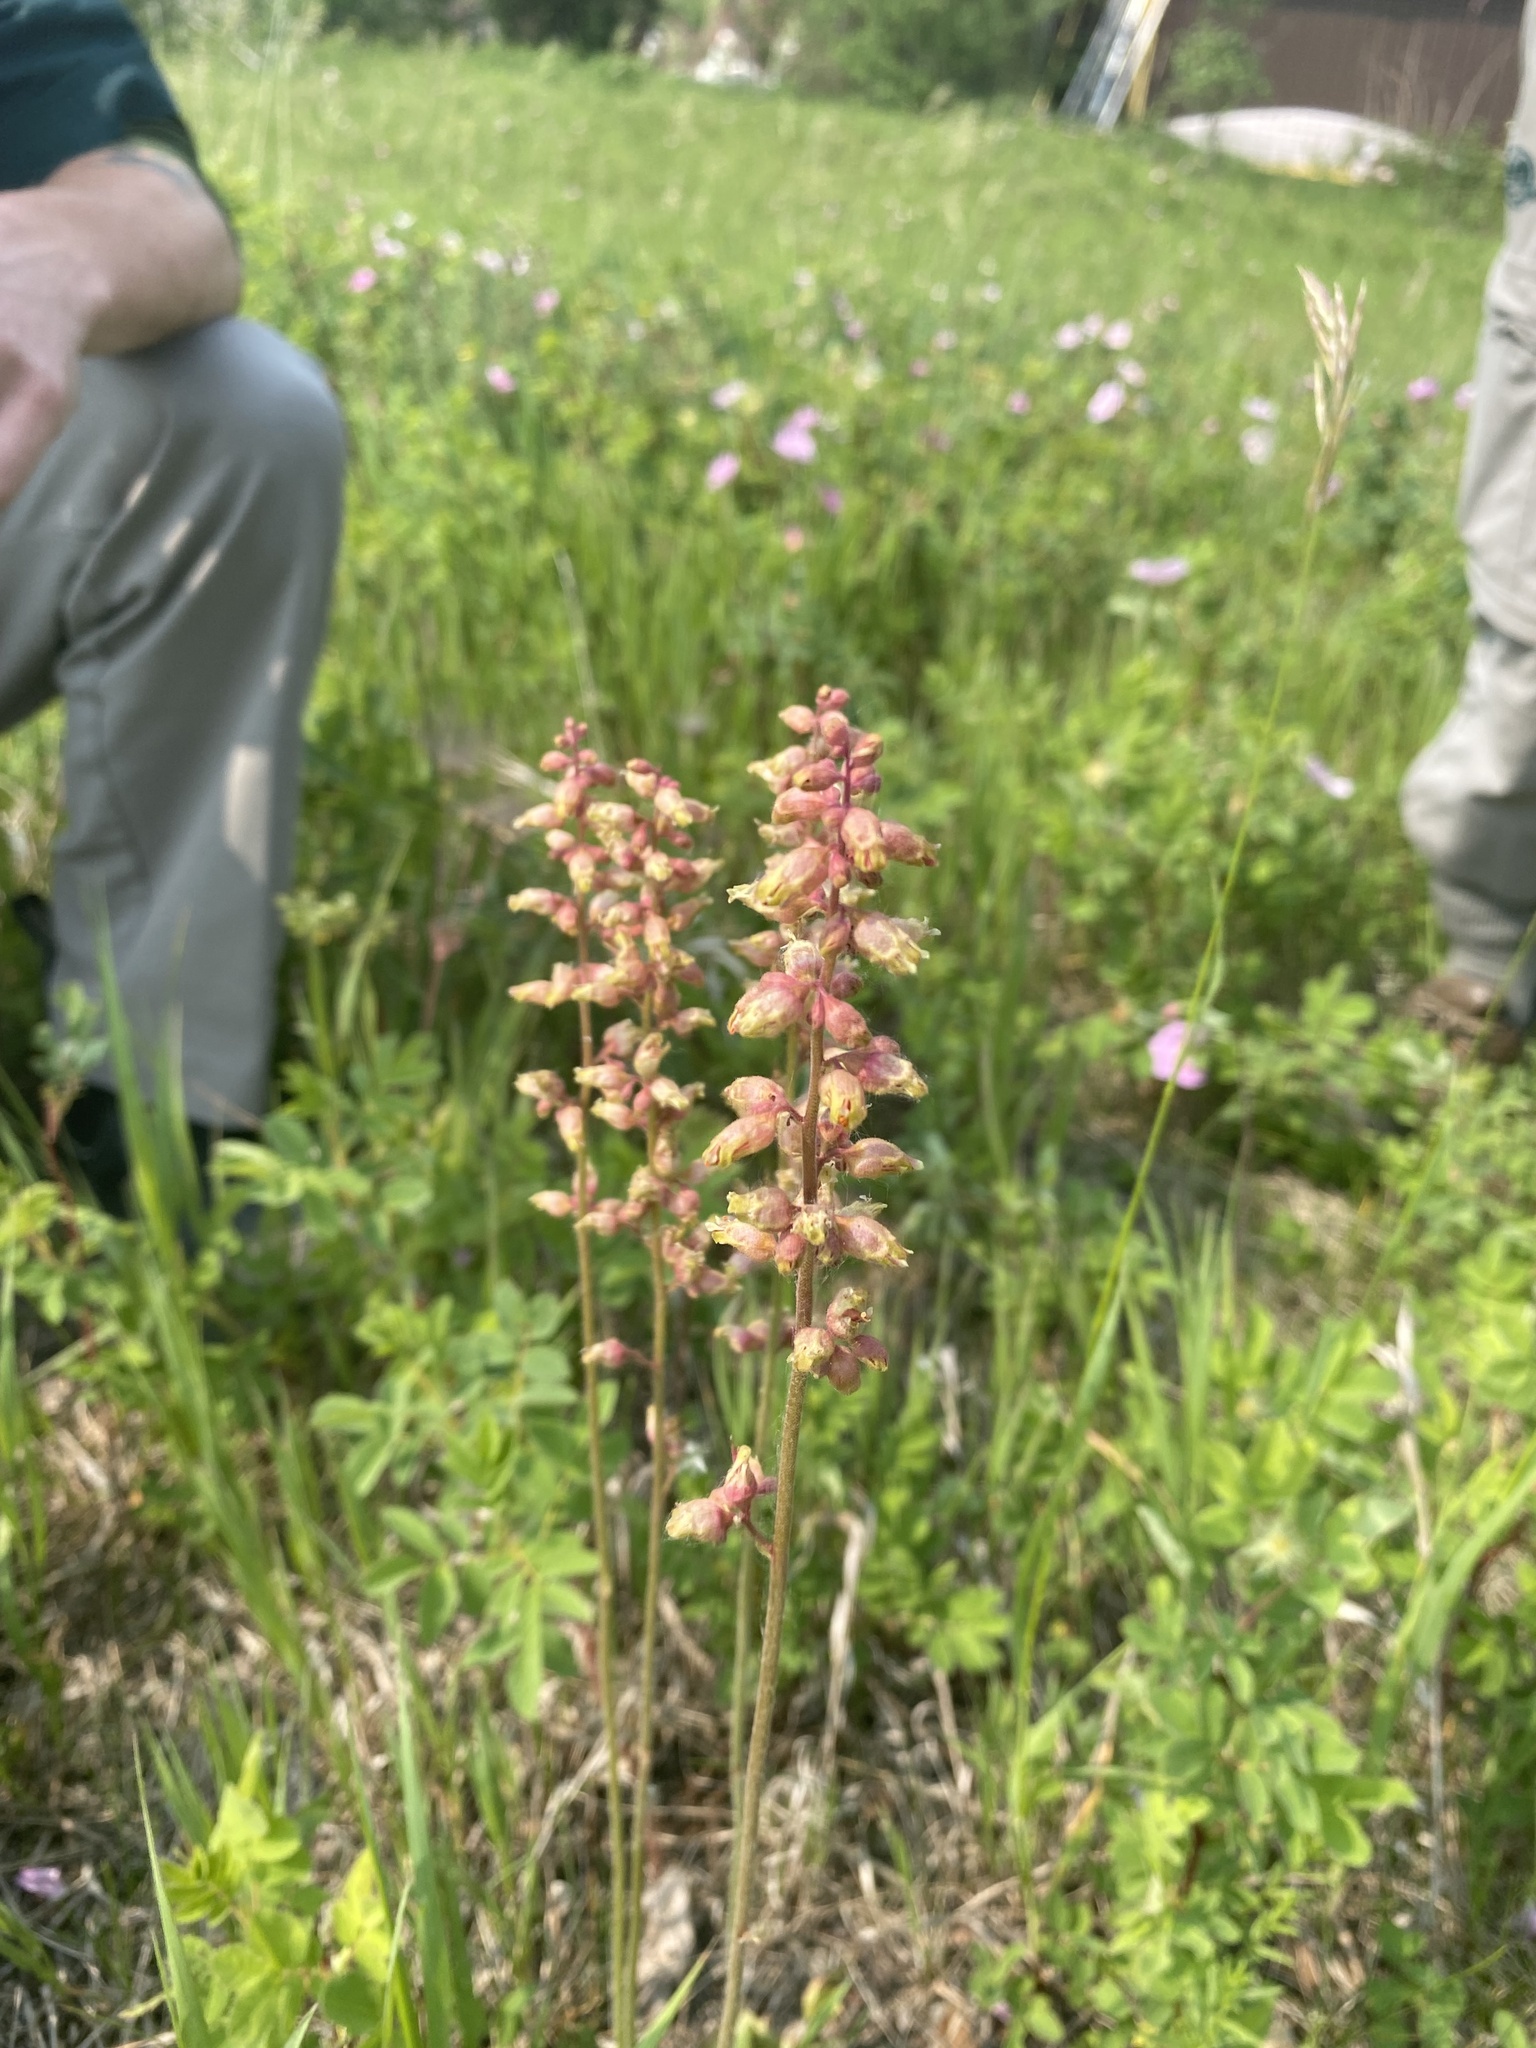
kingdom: Plantae
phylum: Tracheophyta
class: Magnoliopsida
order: Saxifragales
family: Saxifragaceae
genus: Heuchera
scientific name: Heuchera richardsonii
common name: Richardson's alumroot
